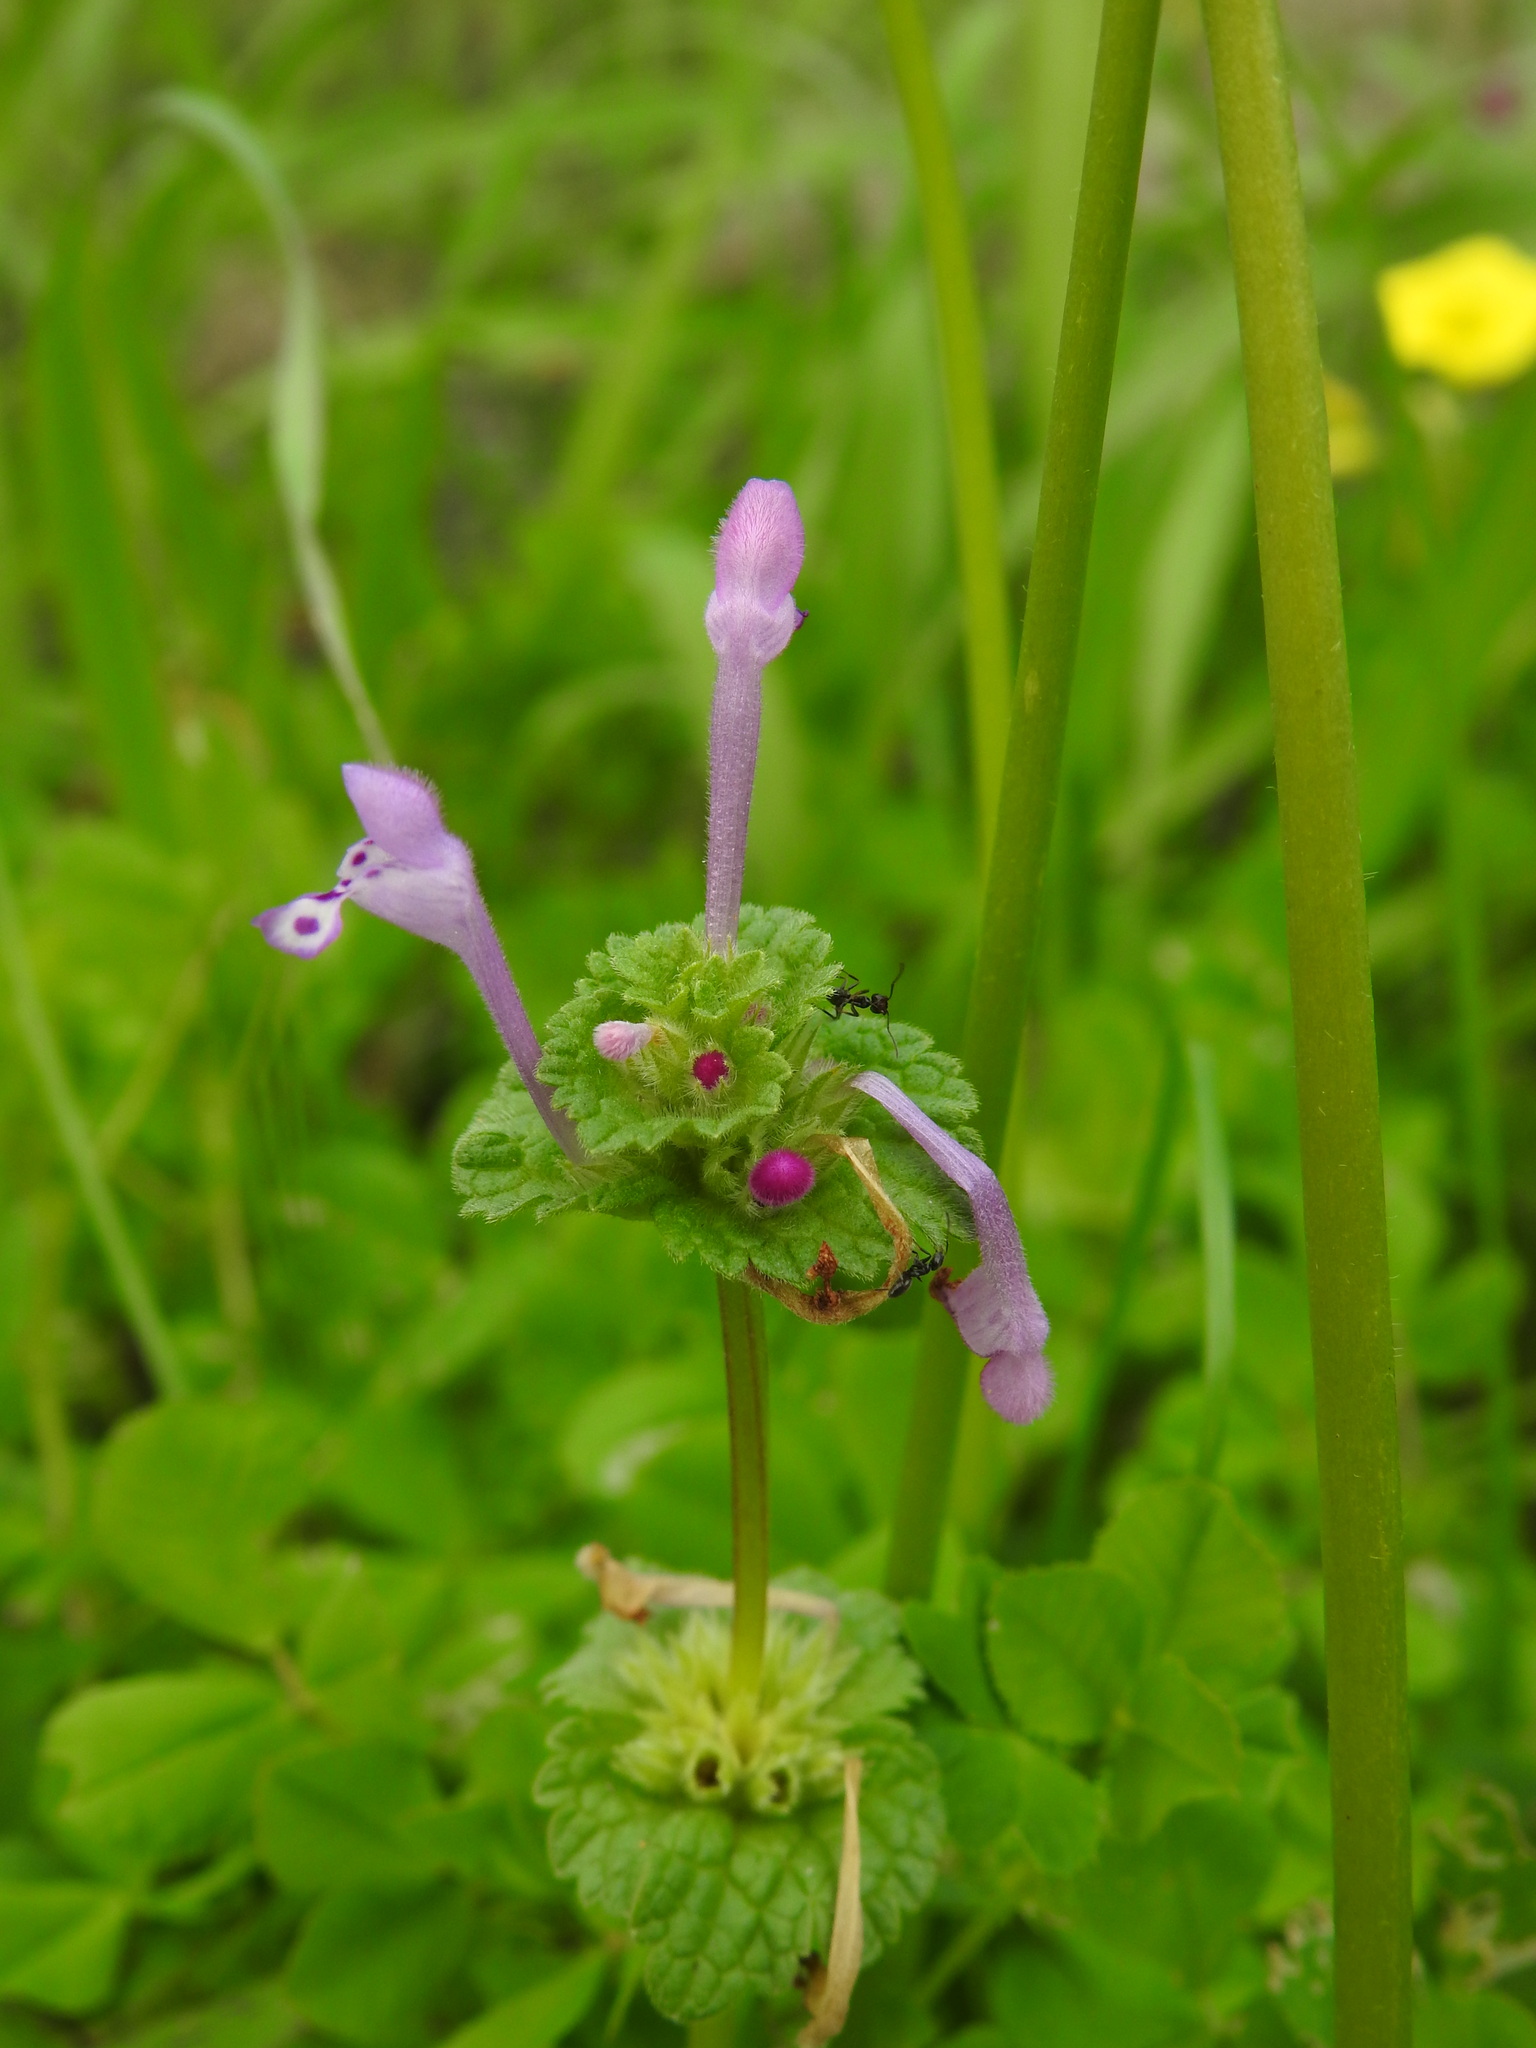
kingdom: Plantae
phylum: Tracheophyta
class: Magnoliopsida
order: Lamiales
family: Lamiaceae
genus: Lamium
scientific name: Lamium amplexicaule
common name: Henbit dead-nettle
